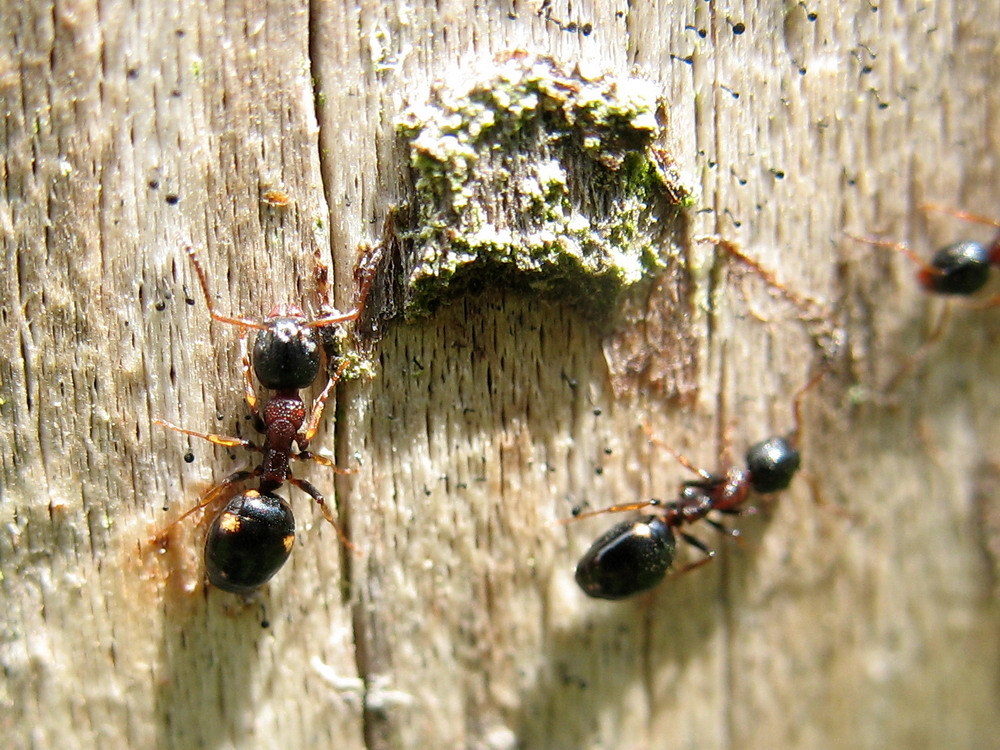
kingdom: Animalia
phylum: Arthropoda
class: Insecta
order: Hymenoptera
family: Formicidae
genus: Dolichoderus
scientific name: Dolichoderus quadripunctatus
